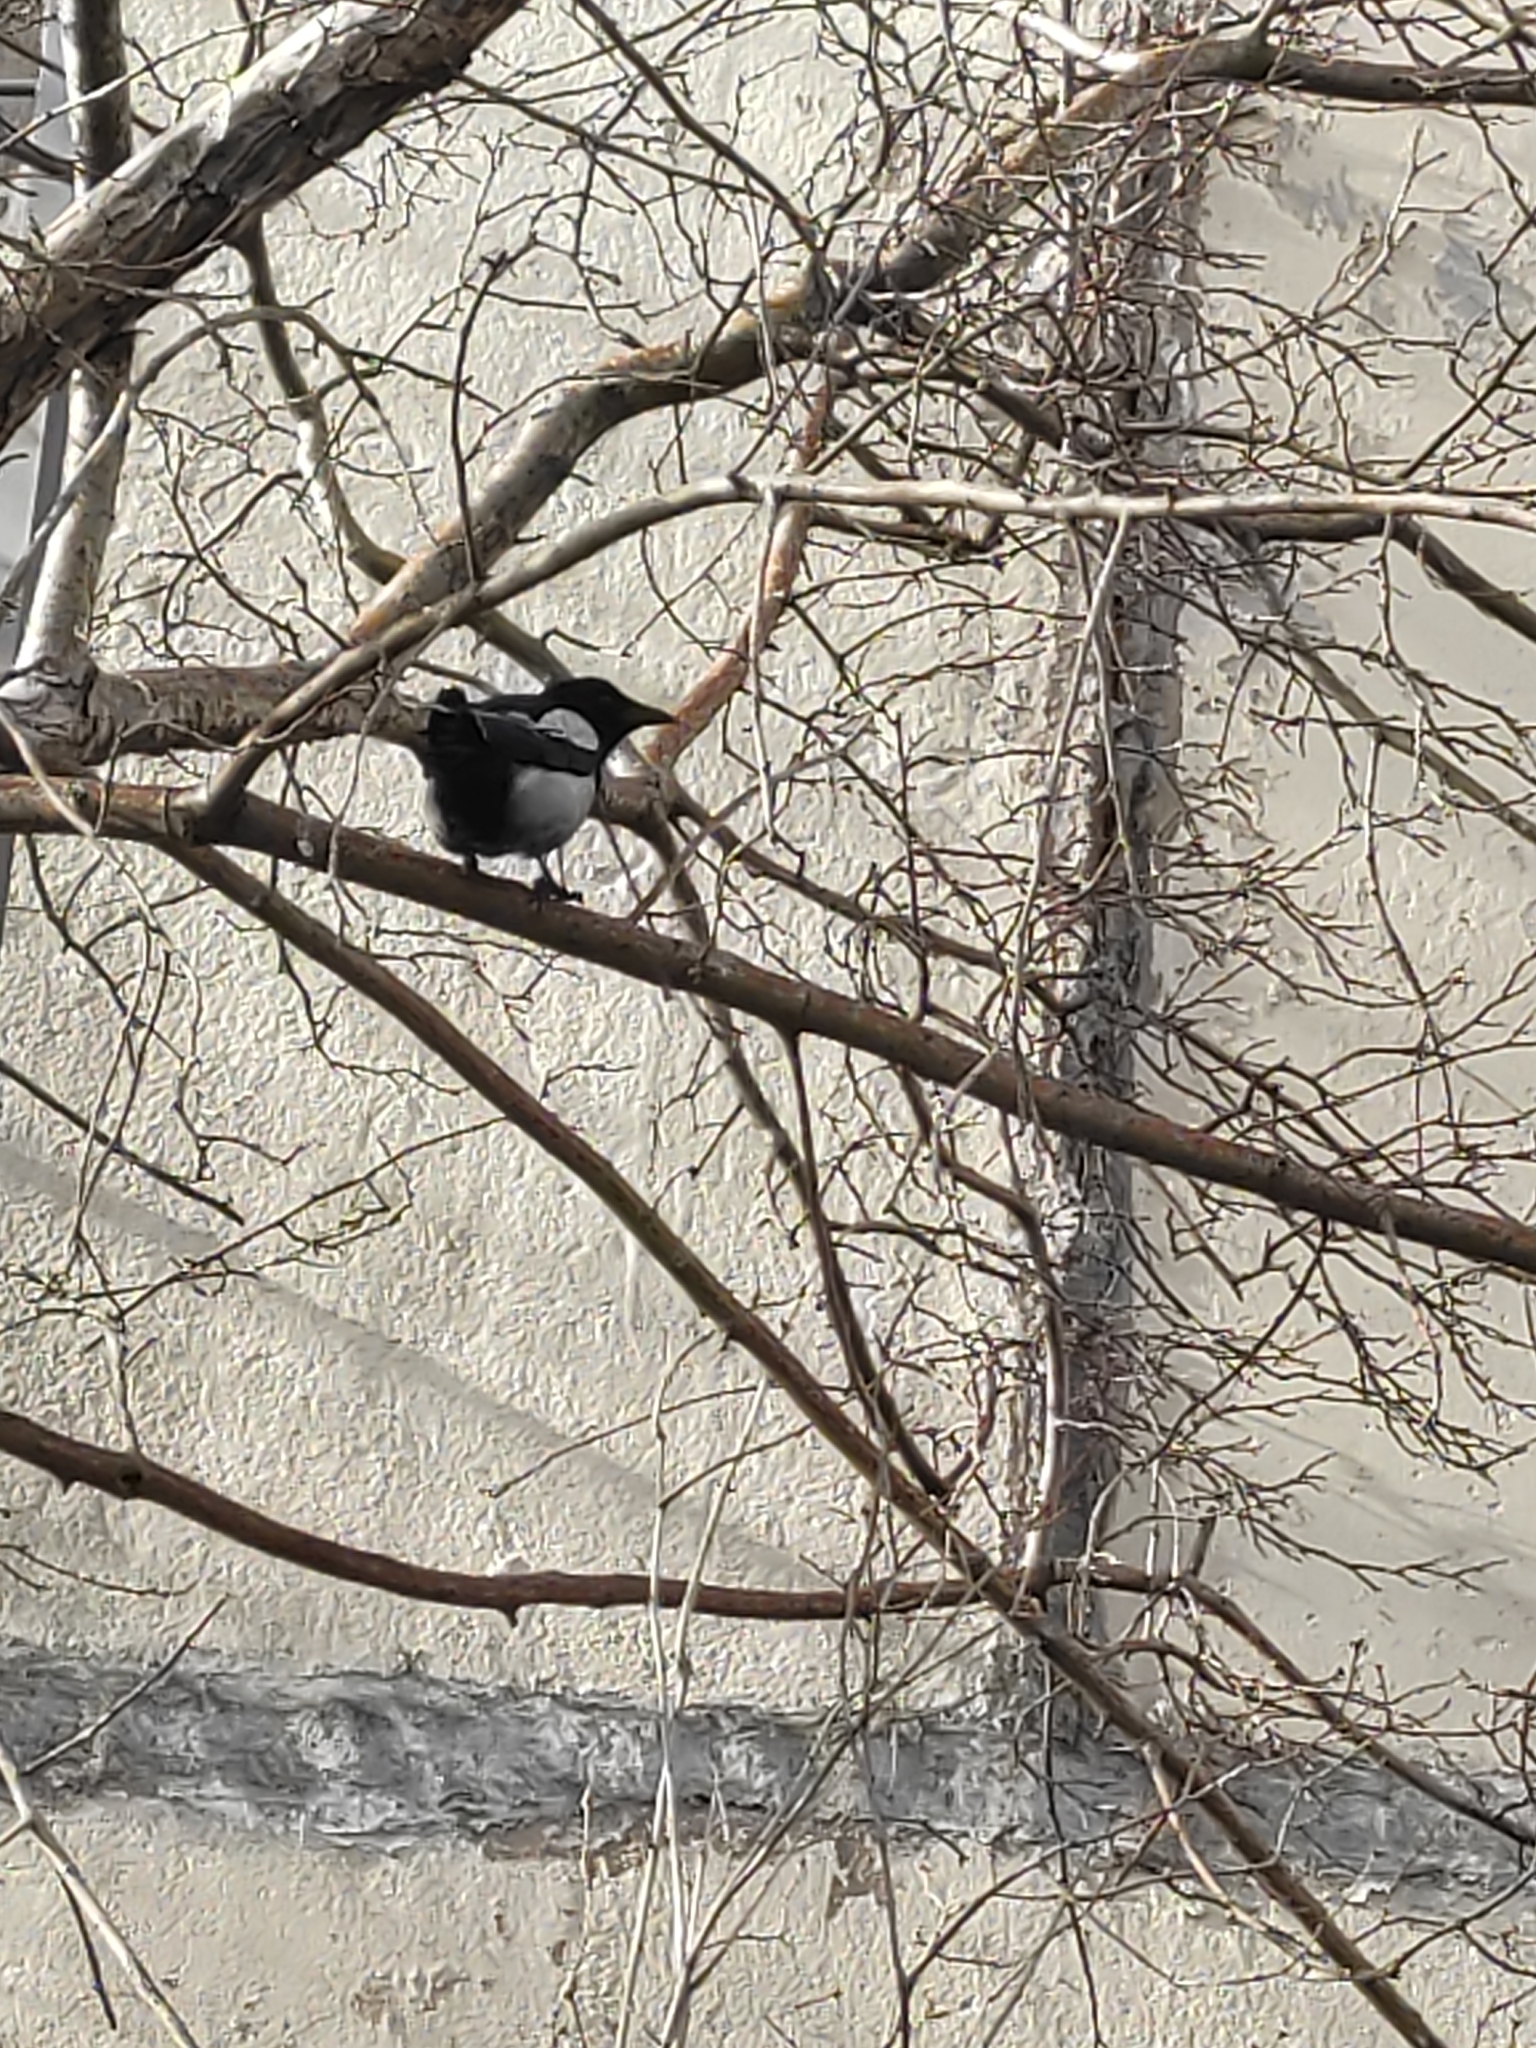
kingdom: Animalia
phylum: Chordata
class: Aves
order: Passeriformes
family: Corvidae
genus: Pica
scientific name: Pica pica
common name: Eurasian magpie
